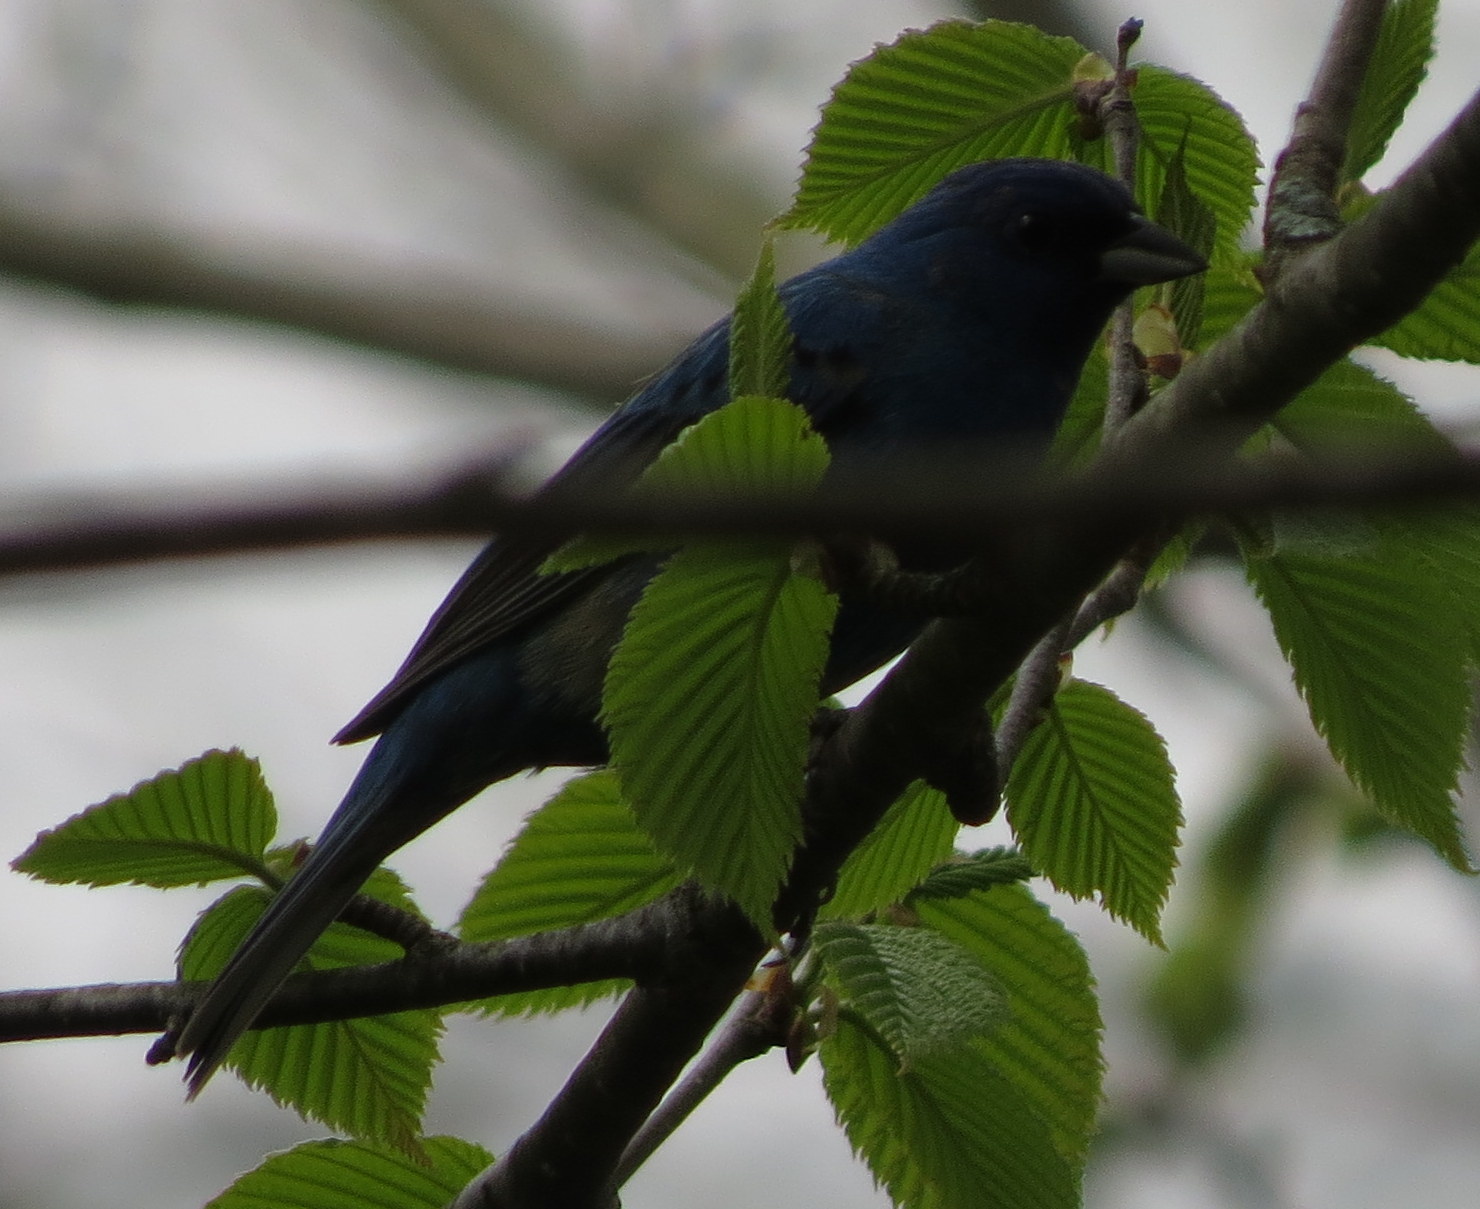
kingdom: Animalia
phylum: Chordata
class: Aves
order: Passeriformes
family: Cardinalidae
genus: Passerina
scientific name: Passerina cyanea
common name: Indigo bunting
